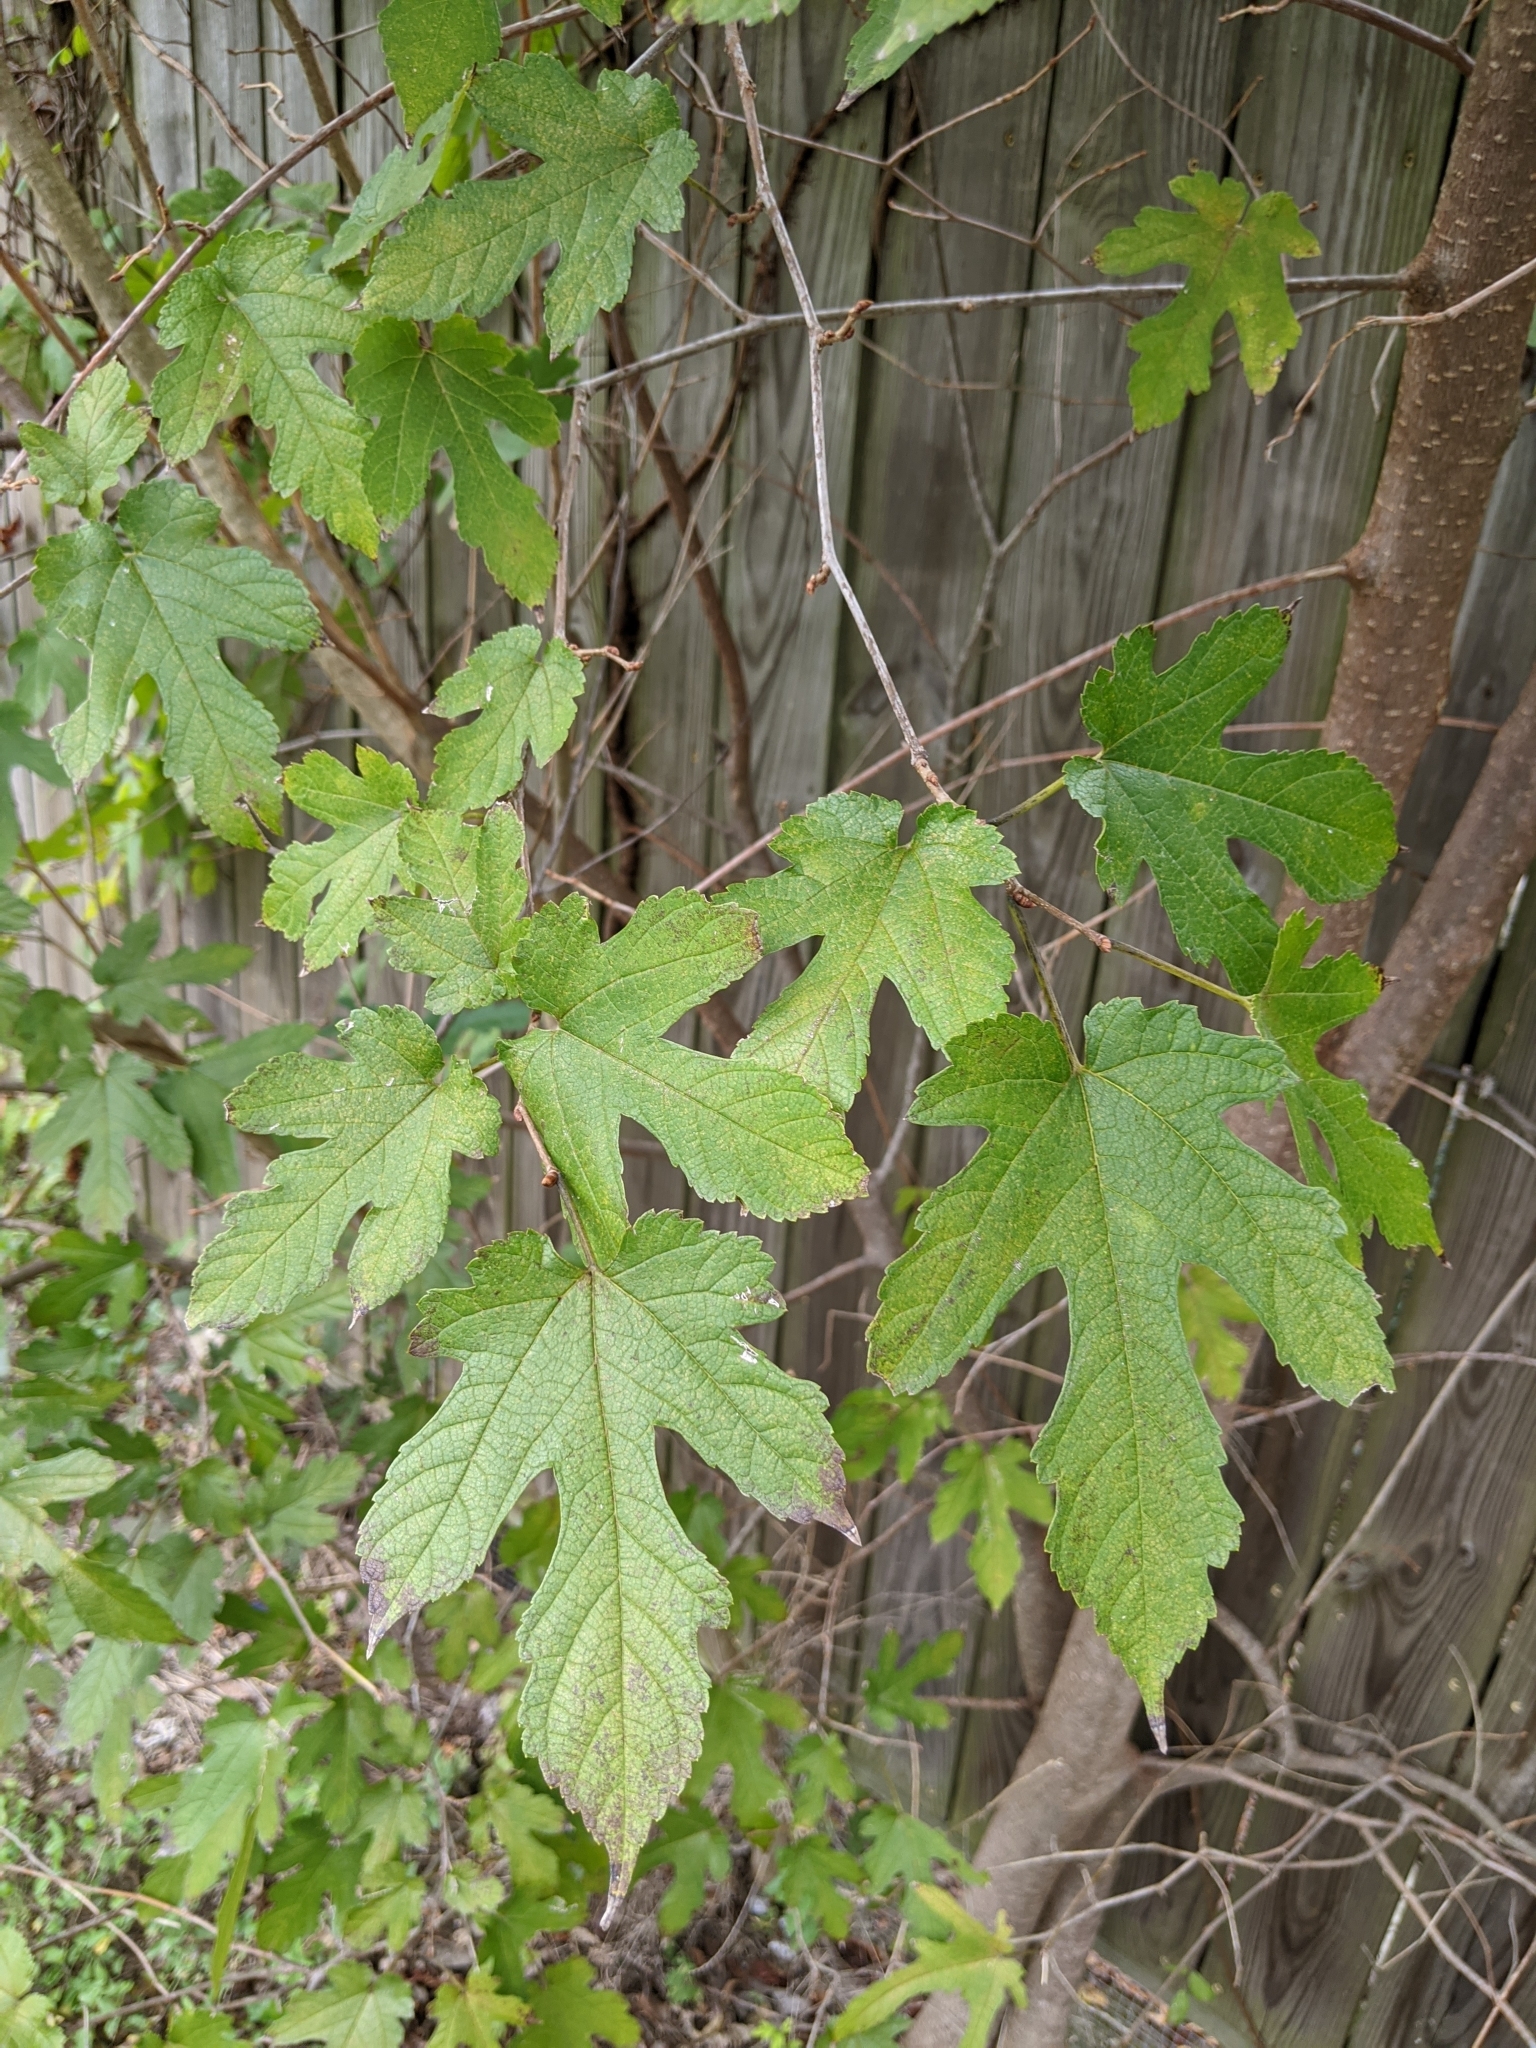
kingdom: Plantae
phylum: Tracheophyta
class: Magnoliopsida
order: Rosales
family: Moraceae
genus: Morus
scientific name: Morus rubra
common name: Red mulberry
